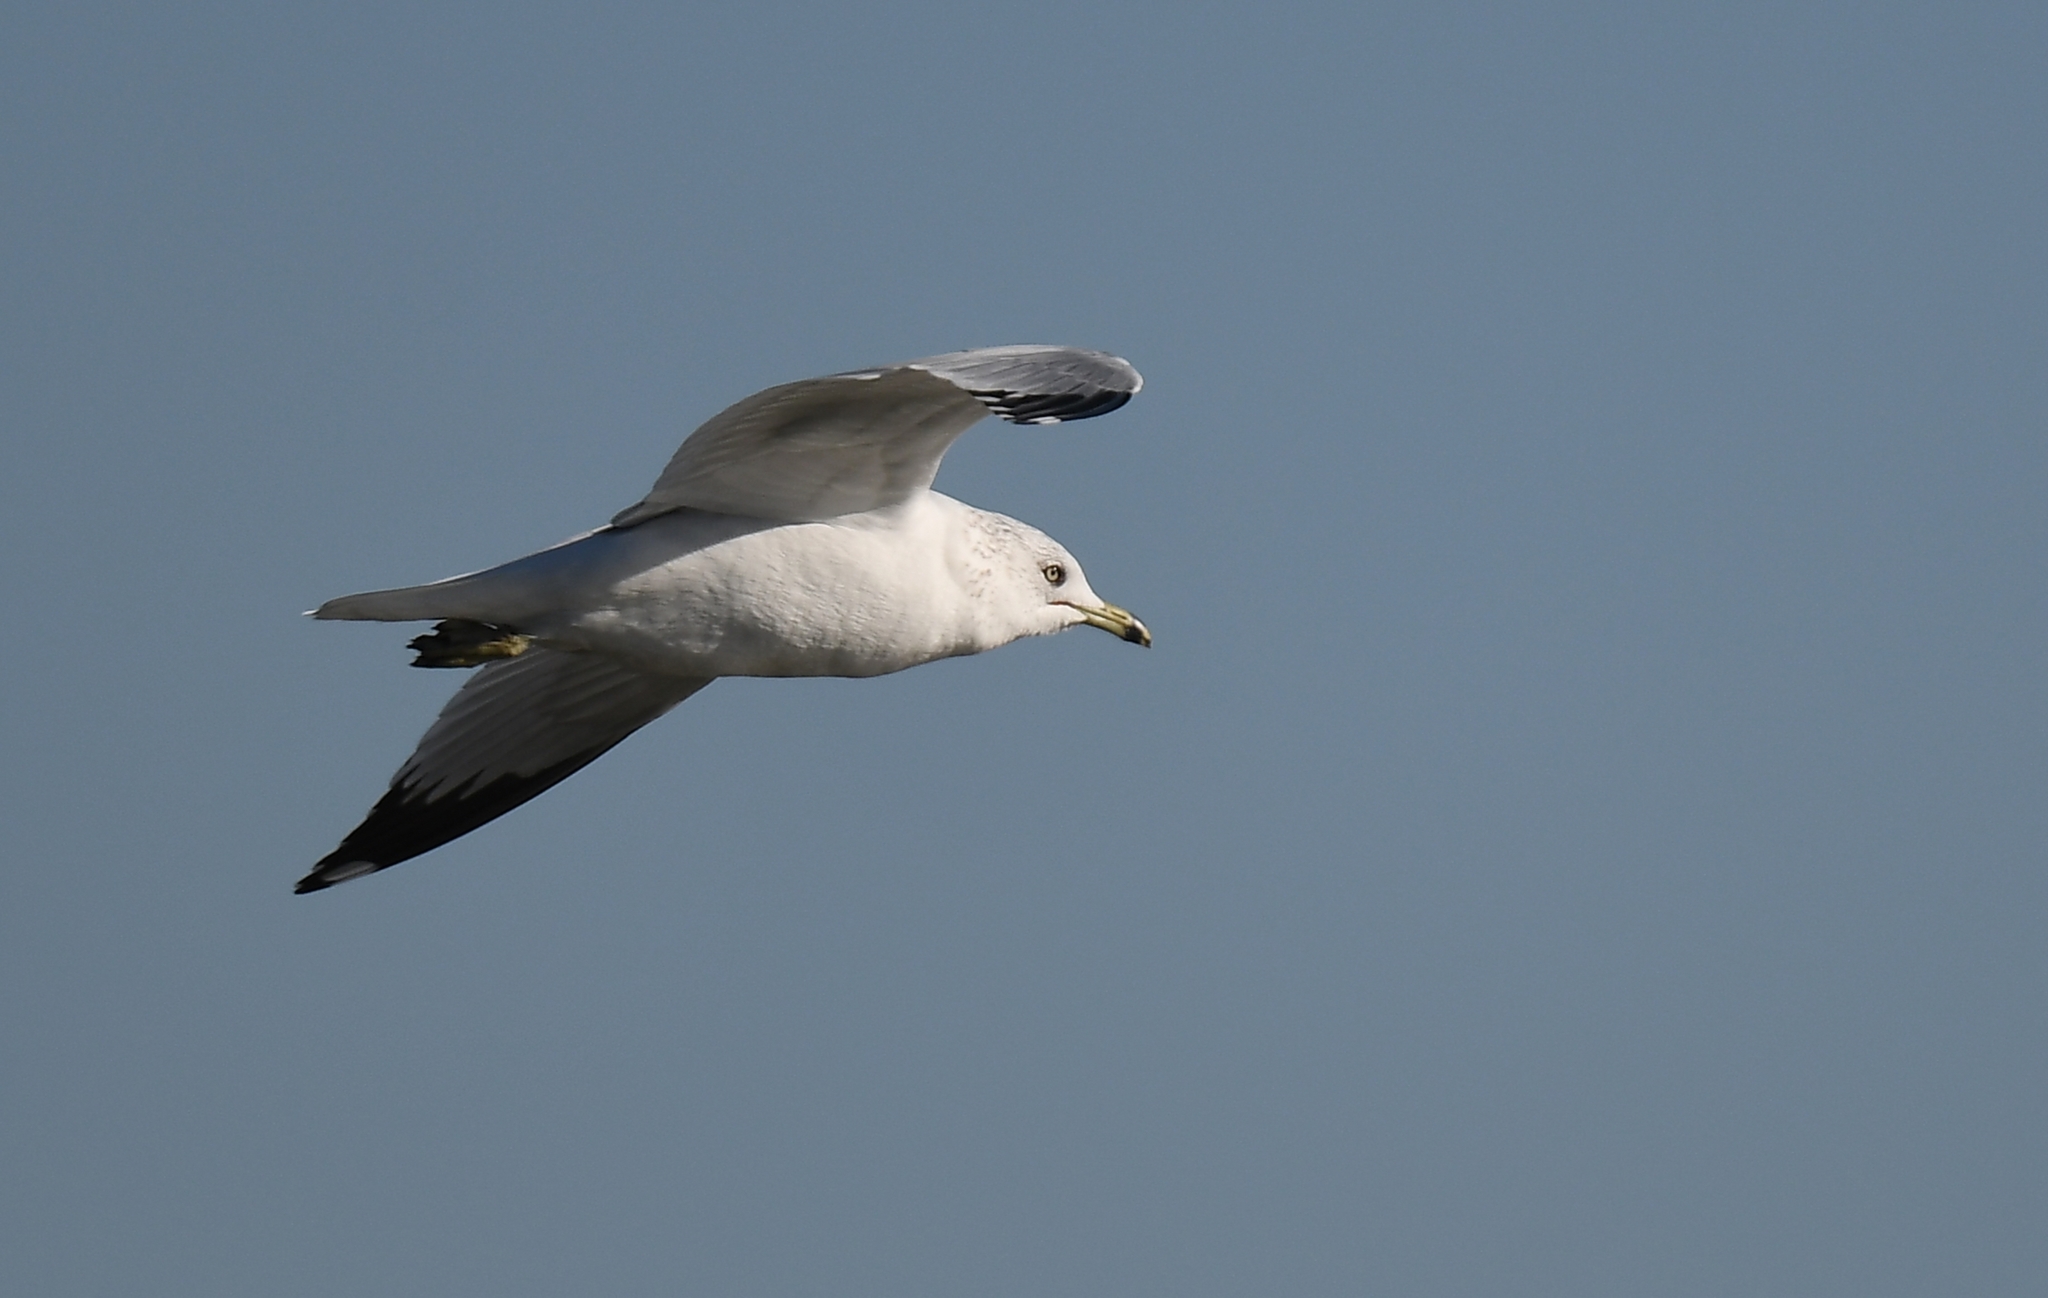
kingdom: Animalia
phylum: Chordata
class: Aves
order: Charadriiformes
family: Laridae
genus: Larus
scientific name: Larus delawarensis
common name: Ring-billed gull
